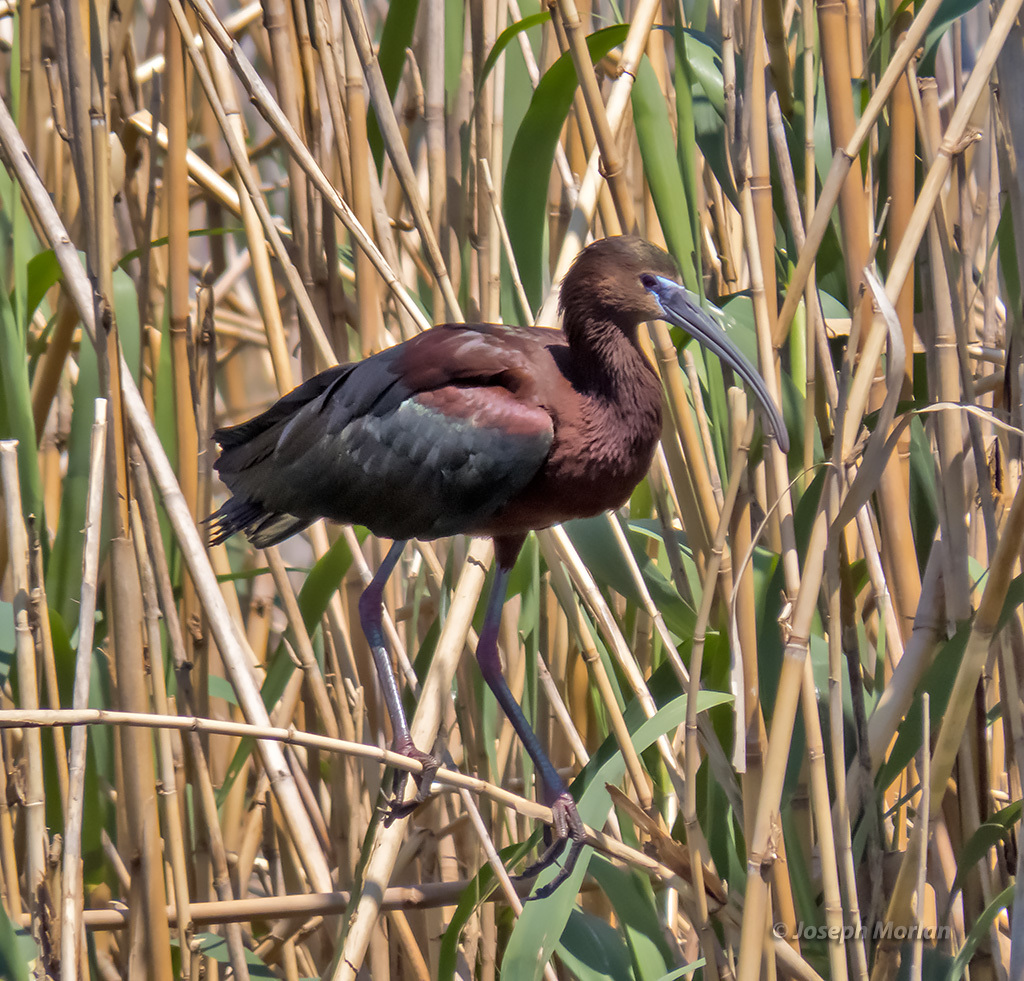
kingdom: Animalia
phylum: Chordata
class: Aves
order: Pelecaniformes
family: Threskiornithidae
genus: Plegadis
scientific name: Plegadis falcinellus
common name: Glossy ibis
